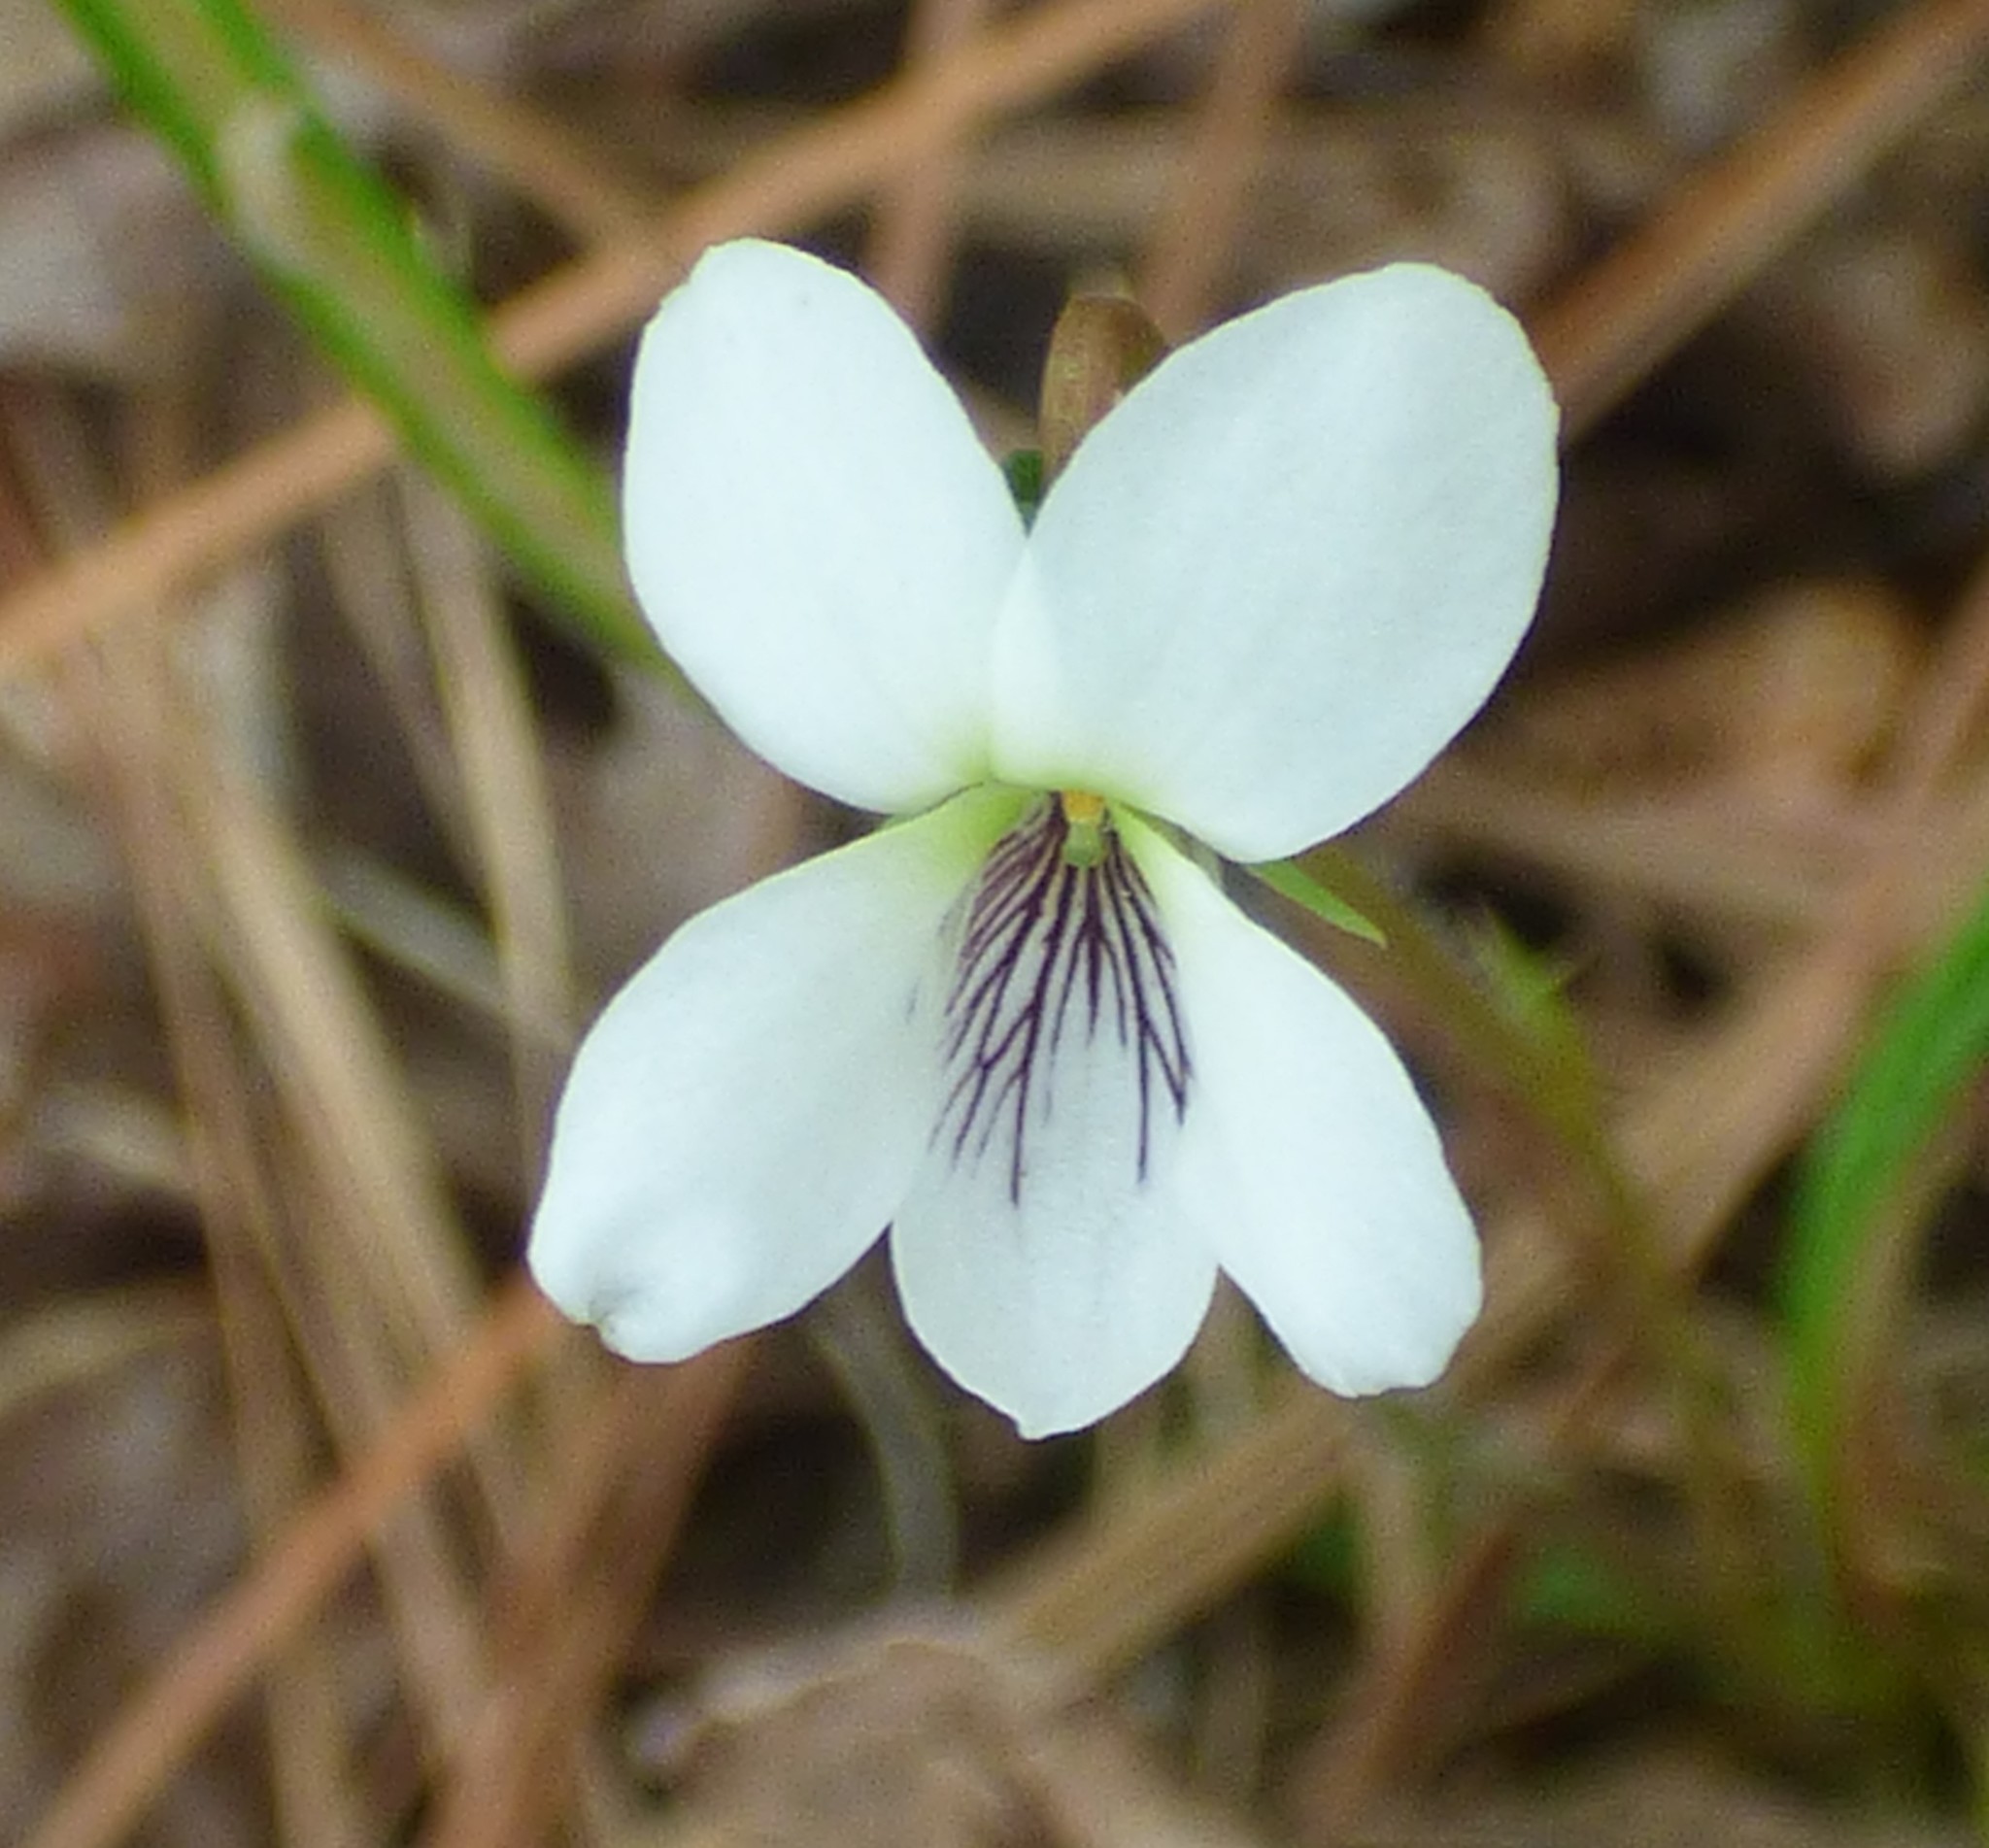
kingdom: Plantae
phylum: Tracheophyta
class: Magnoliopsida
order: Malpighiales
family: Violaceae
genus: Viola
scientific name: Viola lanceolata
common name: Bog white violet
